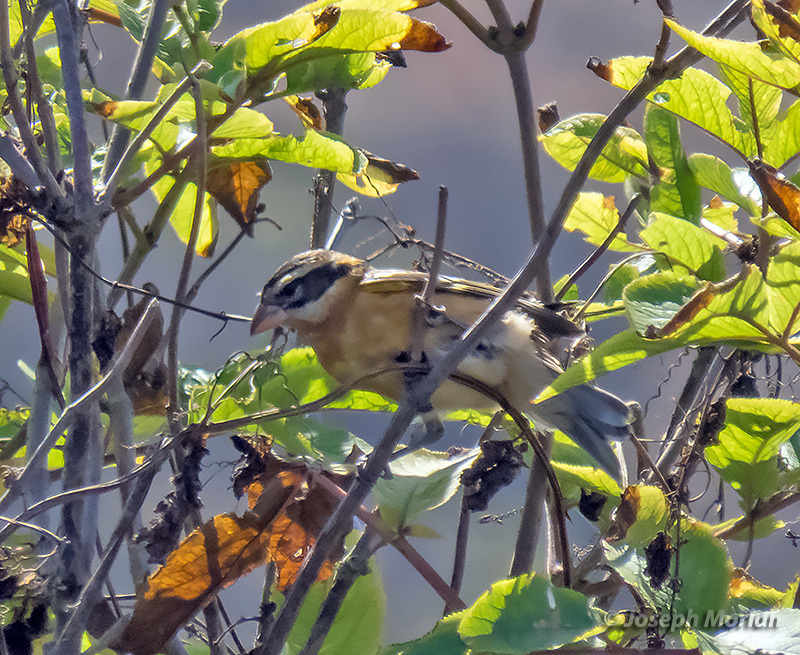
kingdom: Animalia
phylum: Chordata
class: Aves
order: Passeriformes
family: Cardinalidae
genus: Pheucticus
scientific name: Pheucticus melanocephalus
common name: Black-headed grosbeak
